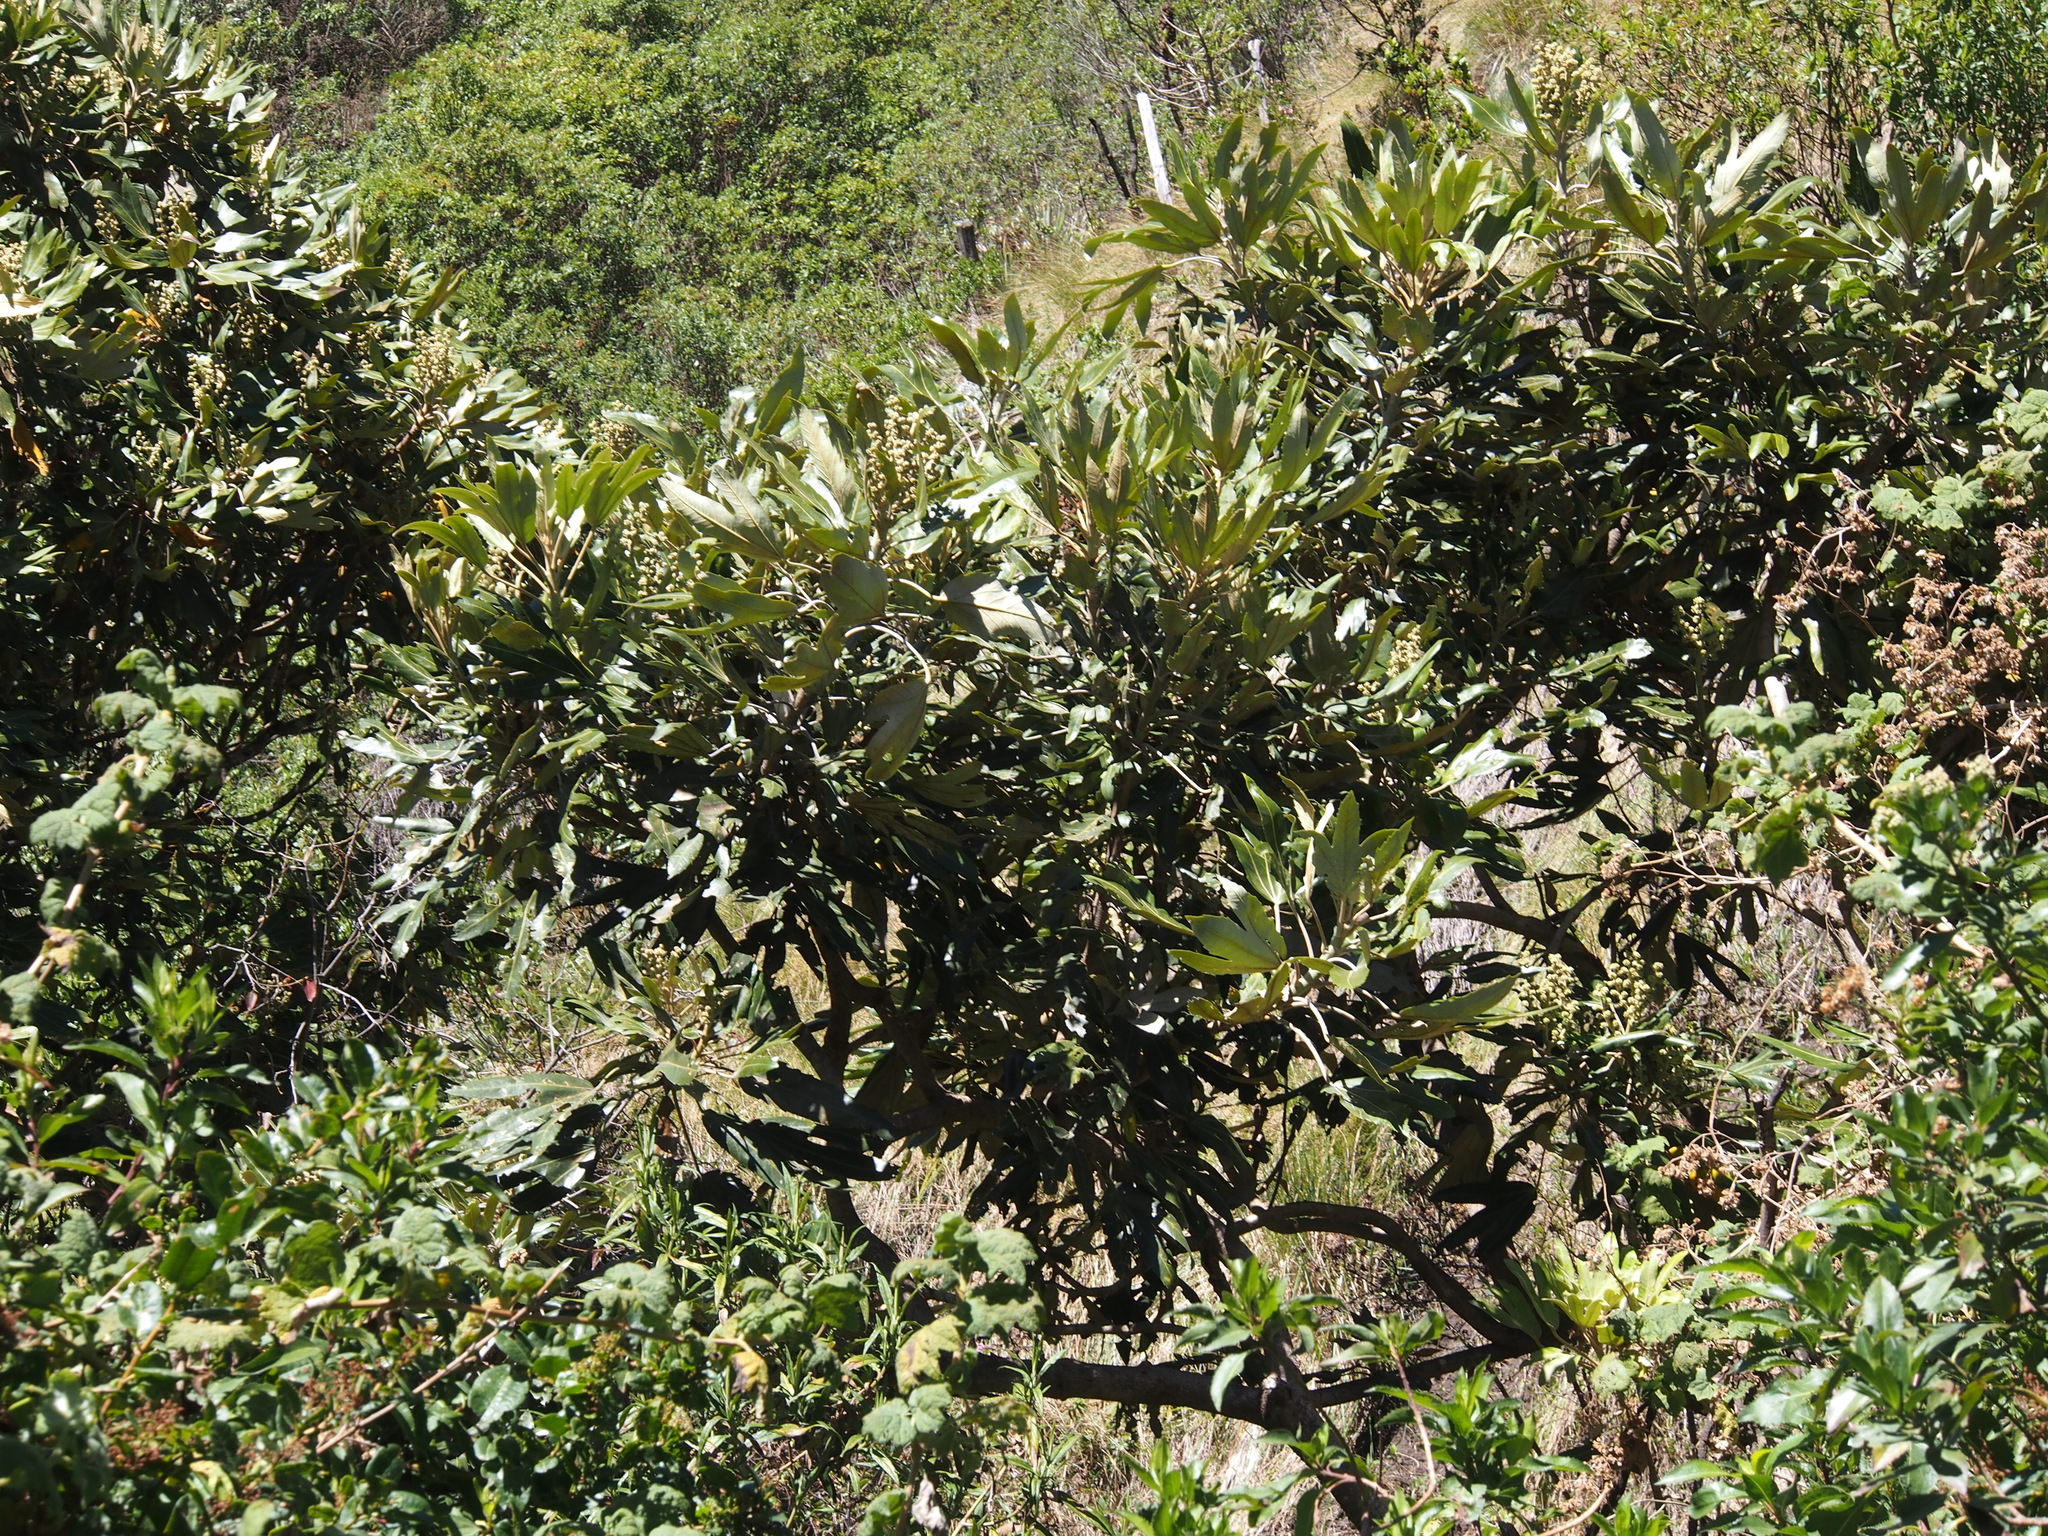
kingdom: Plantae
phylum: Tracheophyta
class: Magnoliopsida
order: Apiales
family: Araliaceae
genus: Oreopanax
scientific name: Oreopanax ecuadorensis
